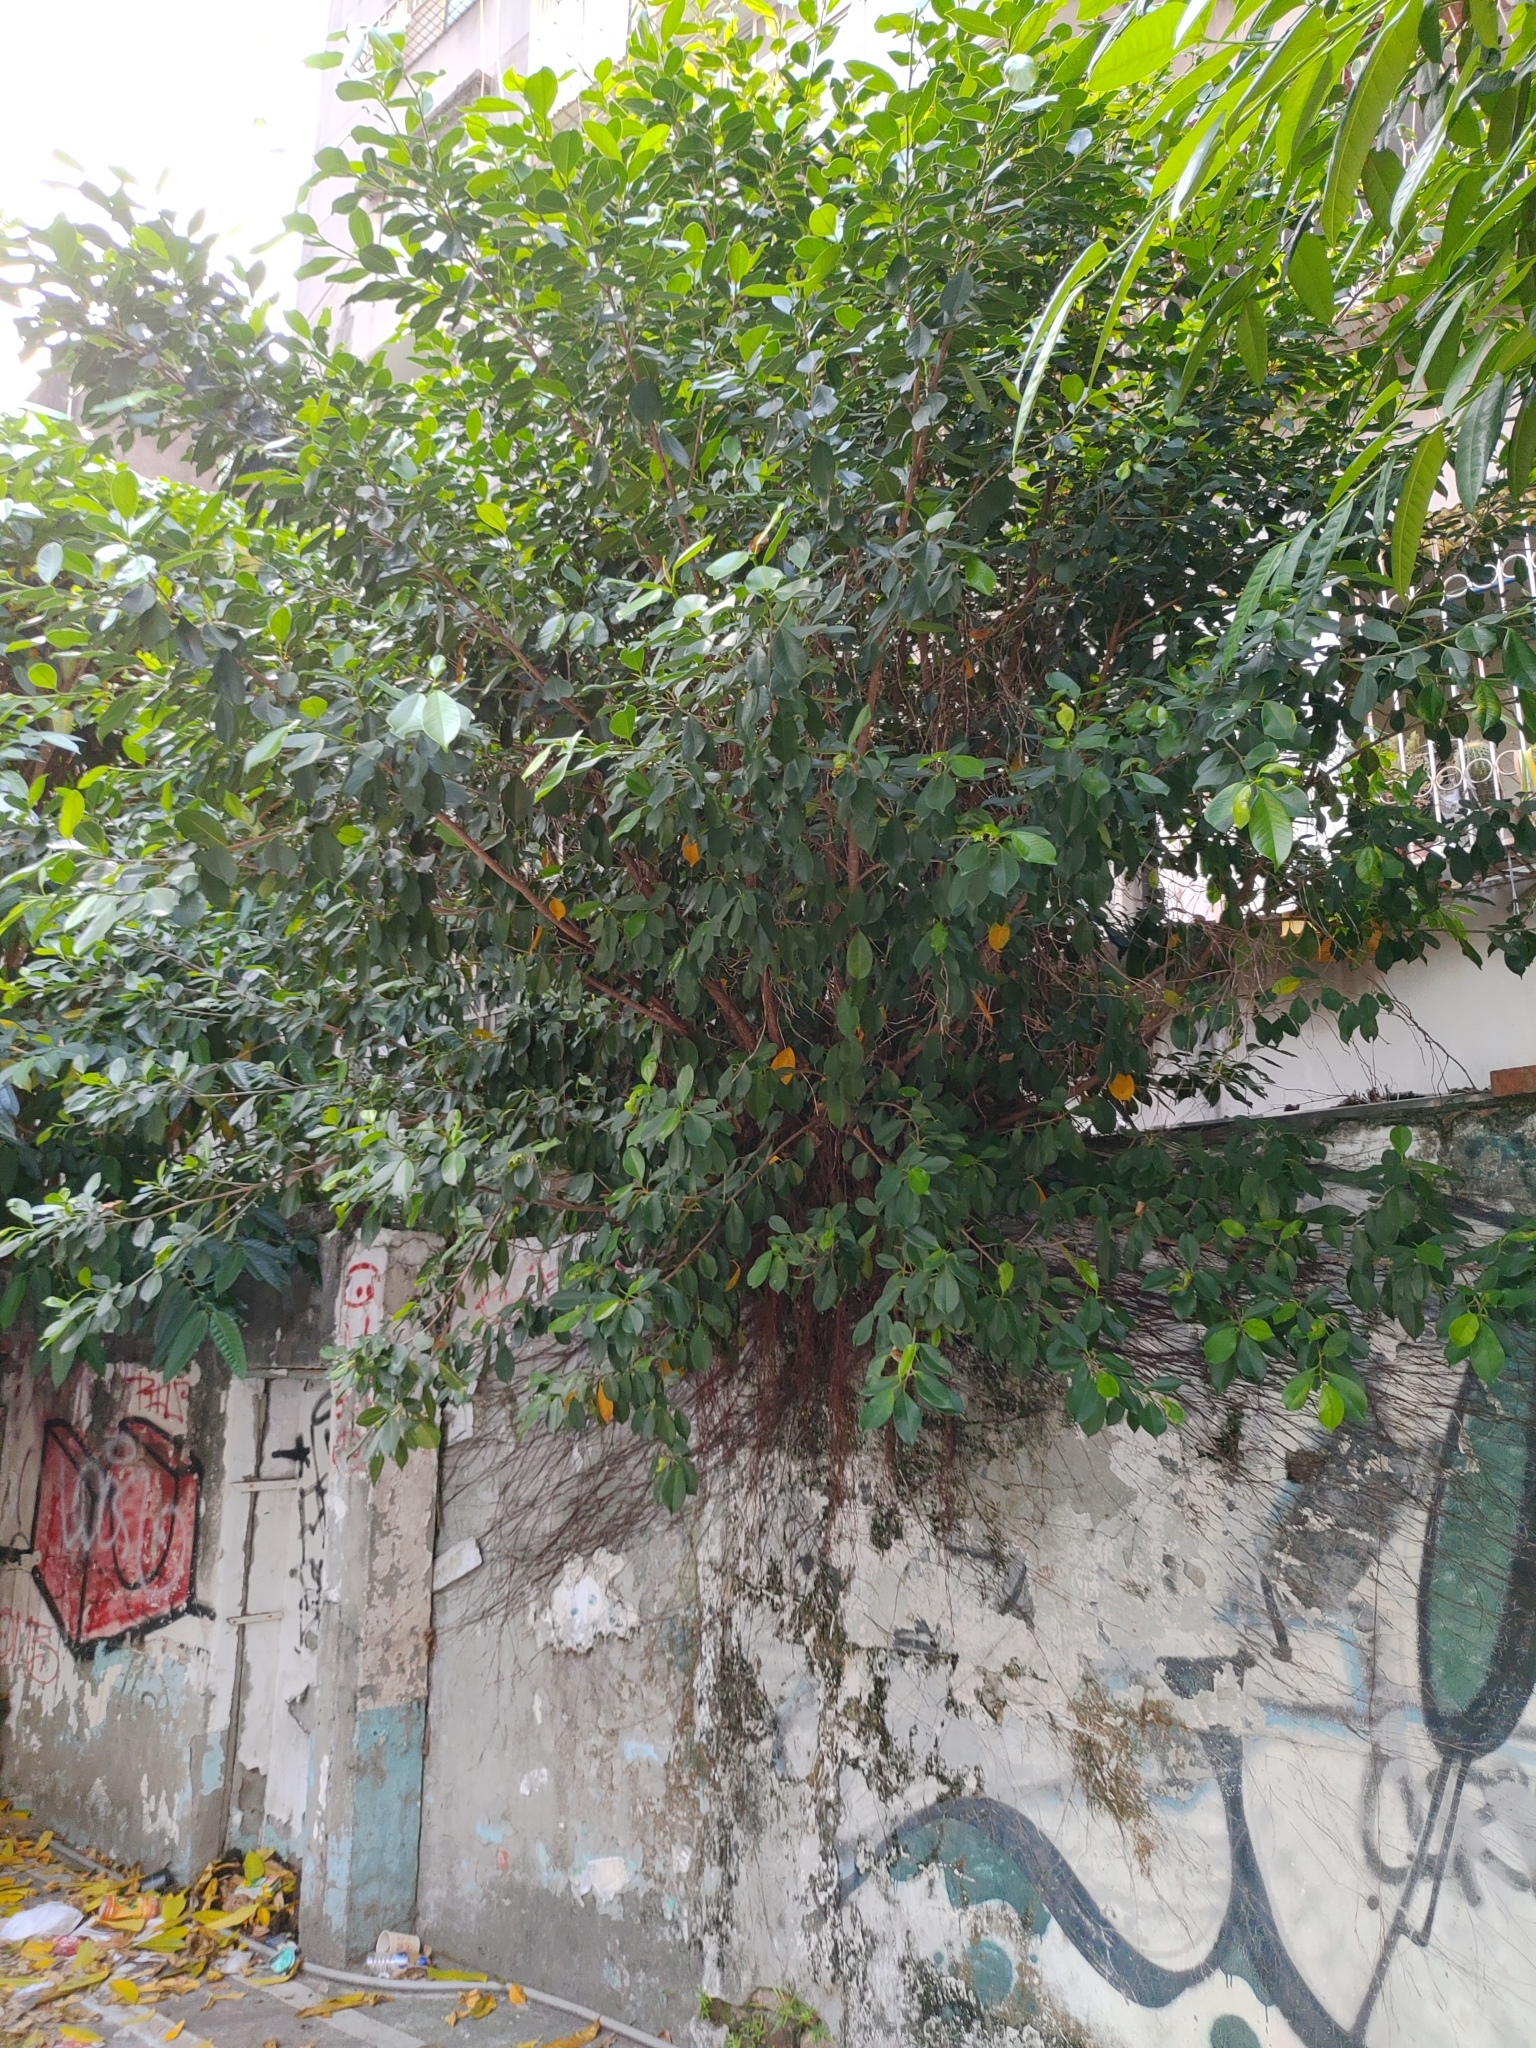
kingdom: Plantae
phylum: Tracheophyta
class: Magnoliopsida
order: Rosales
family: Moraceae
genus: Ficus
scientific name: Ficus microcarpa
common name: Chinese banyan
